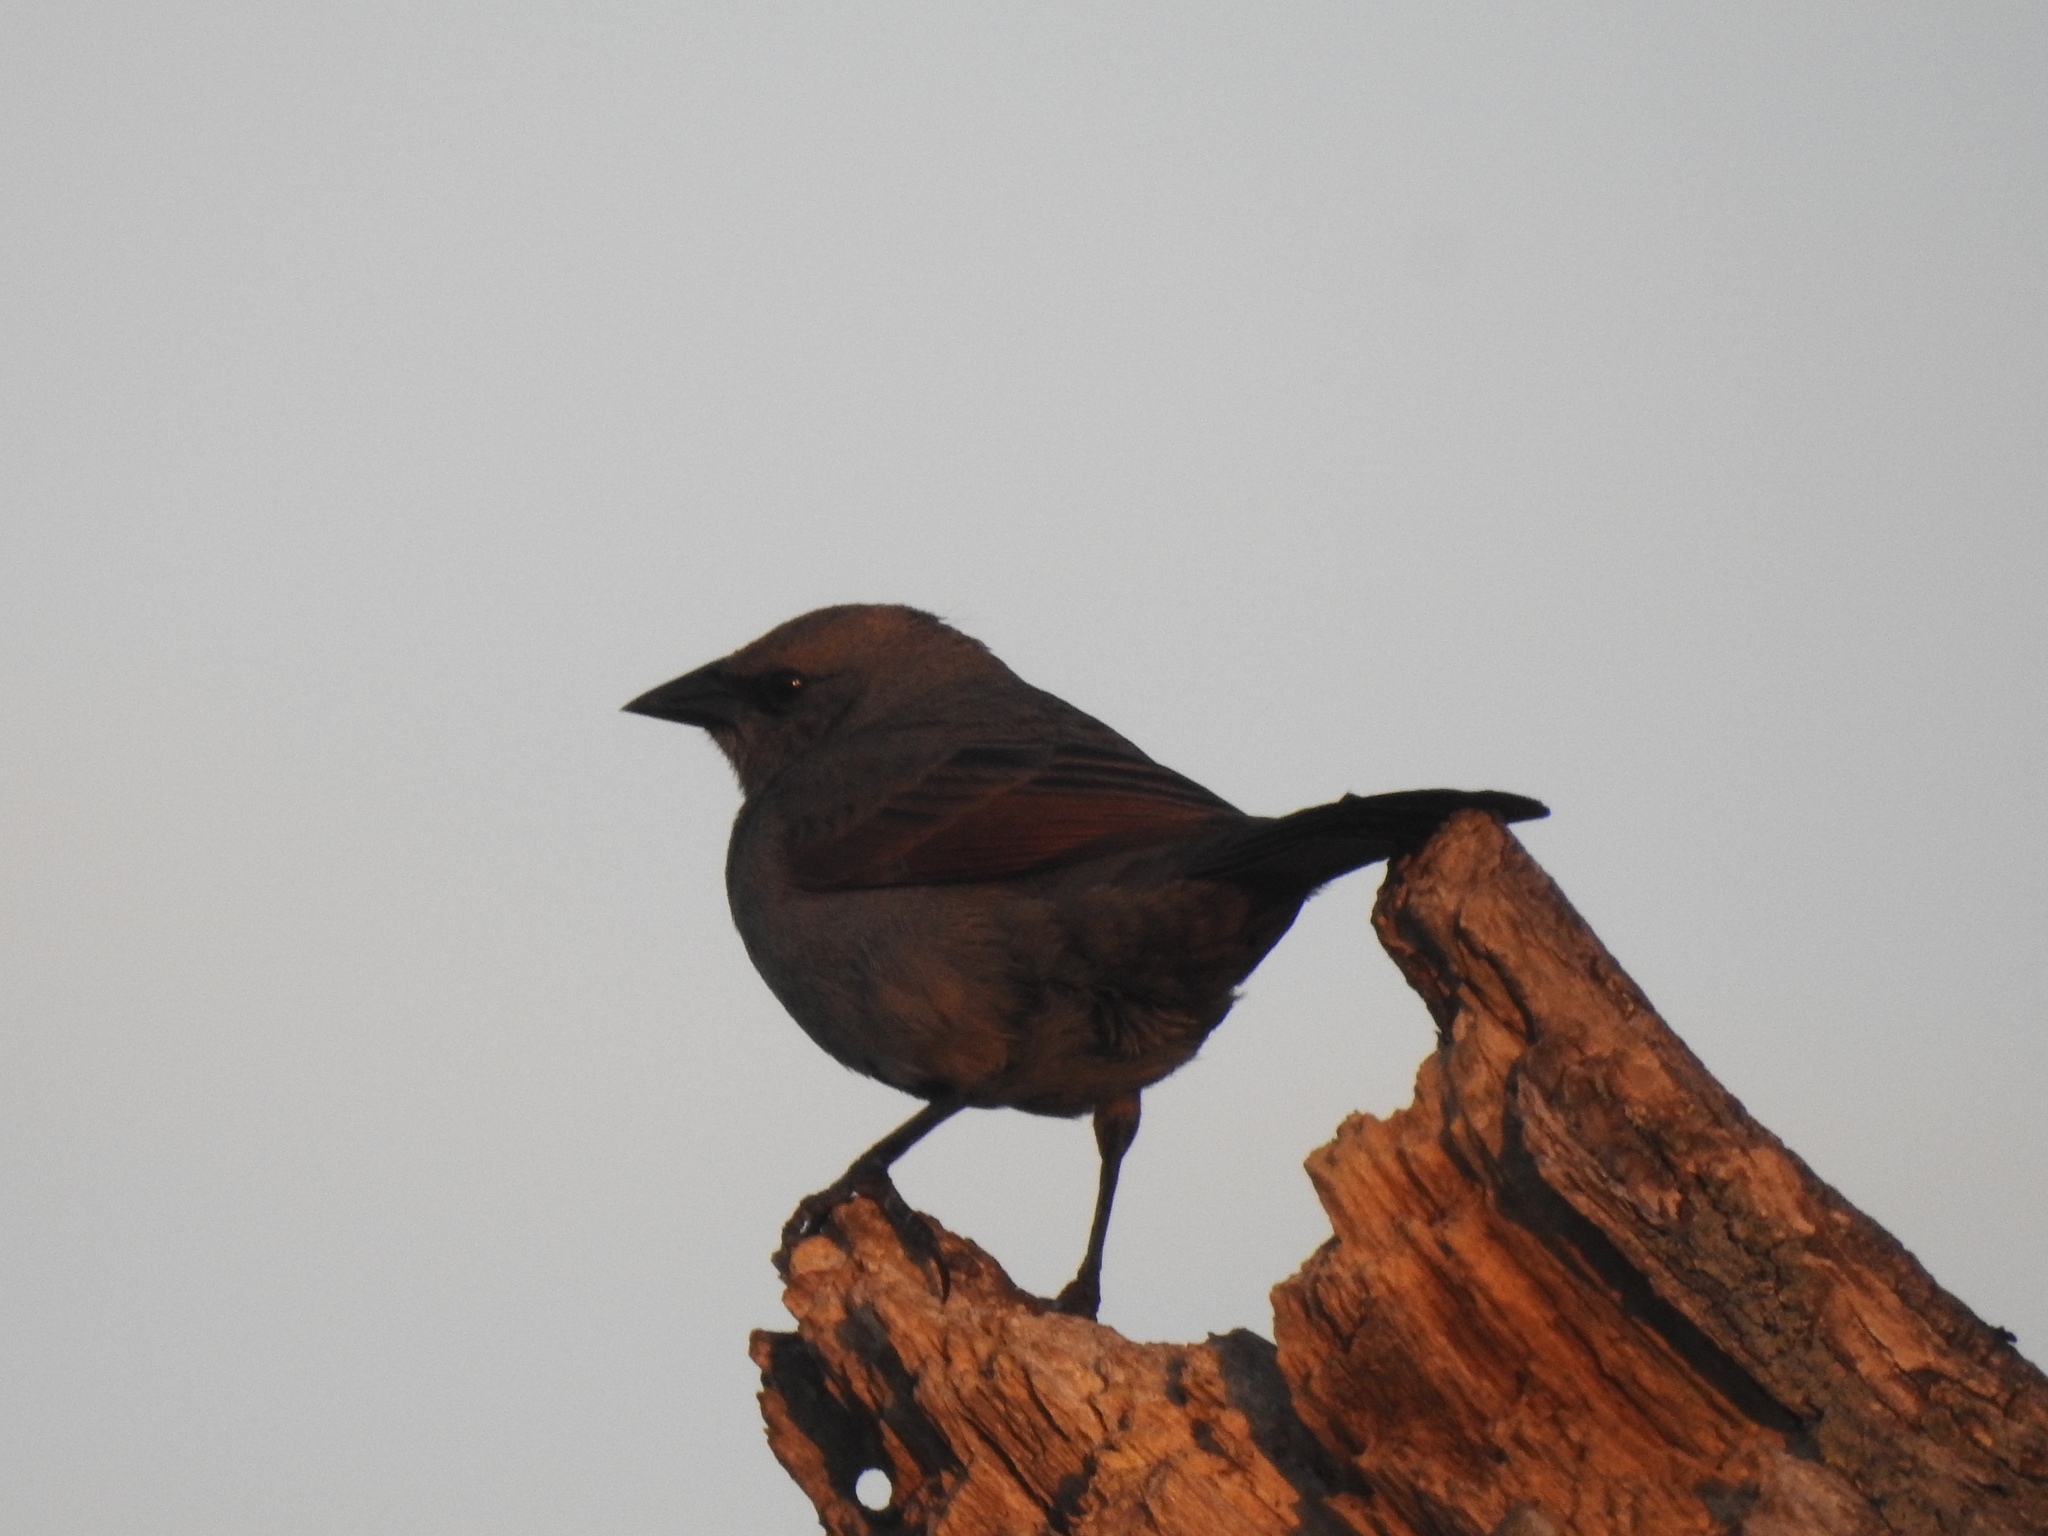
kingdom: Animalia
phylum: Chordata
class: Aves
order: Passeriformes
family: Icteridae
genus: Agelaioides
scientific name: Agelaioides badius
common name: Baywing
